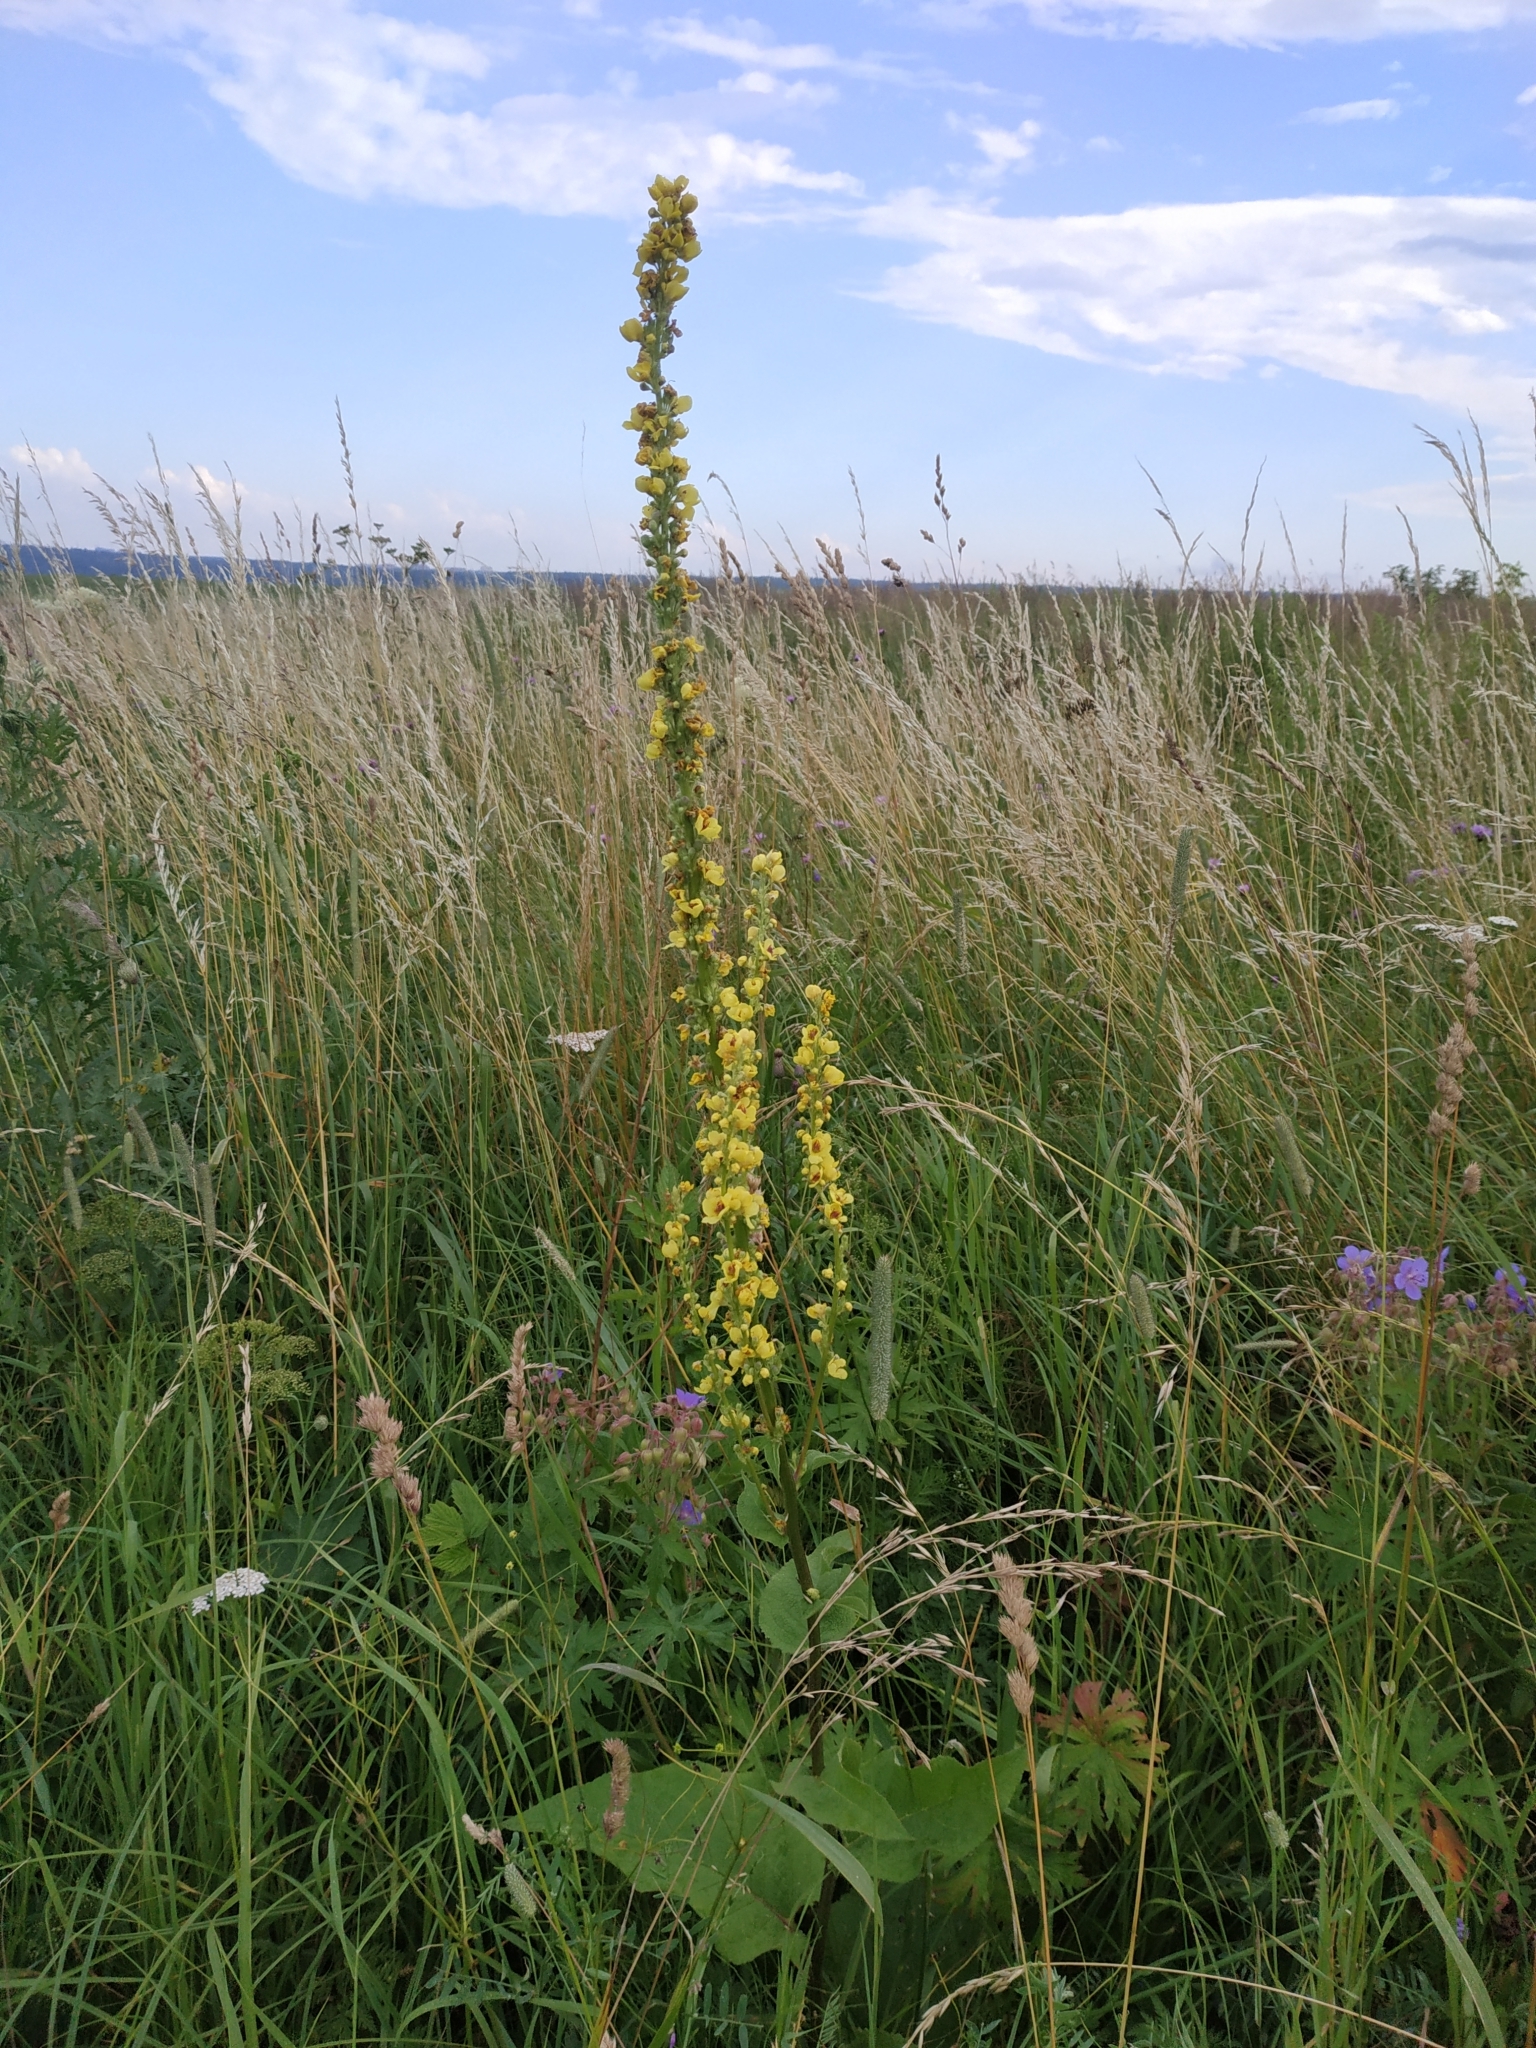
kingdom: Plantae
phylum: Tracheophyta
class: Magnoliopsida
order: Lamiales
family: Scrophulariaceae
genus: Verbascum
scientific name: Verbascum nigrum
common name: Dark mullein
